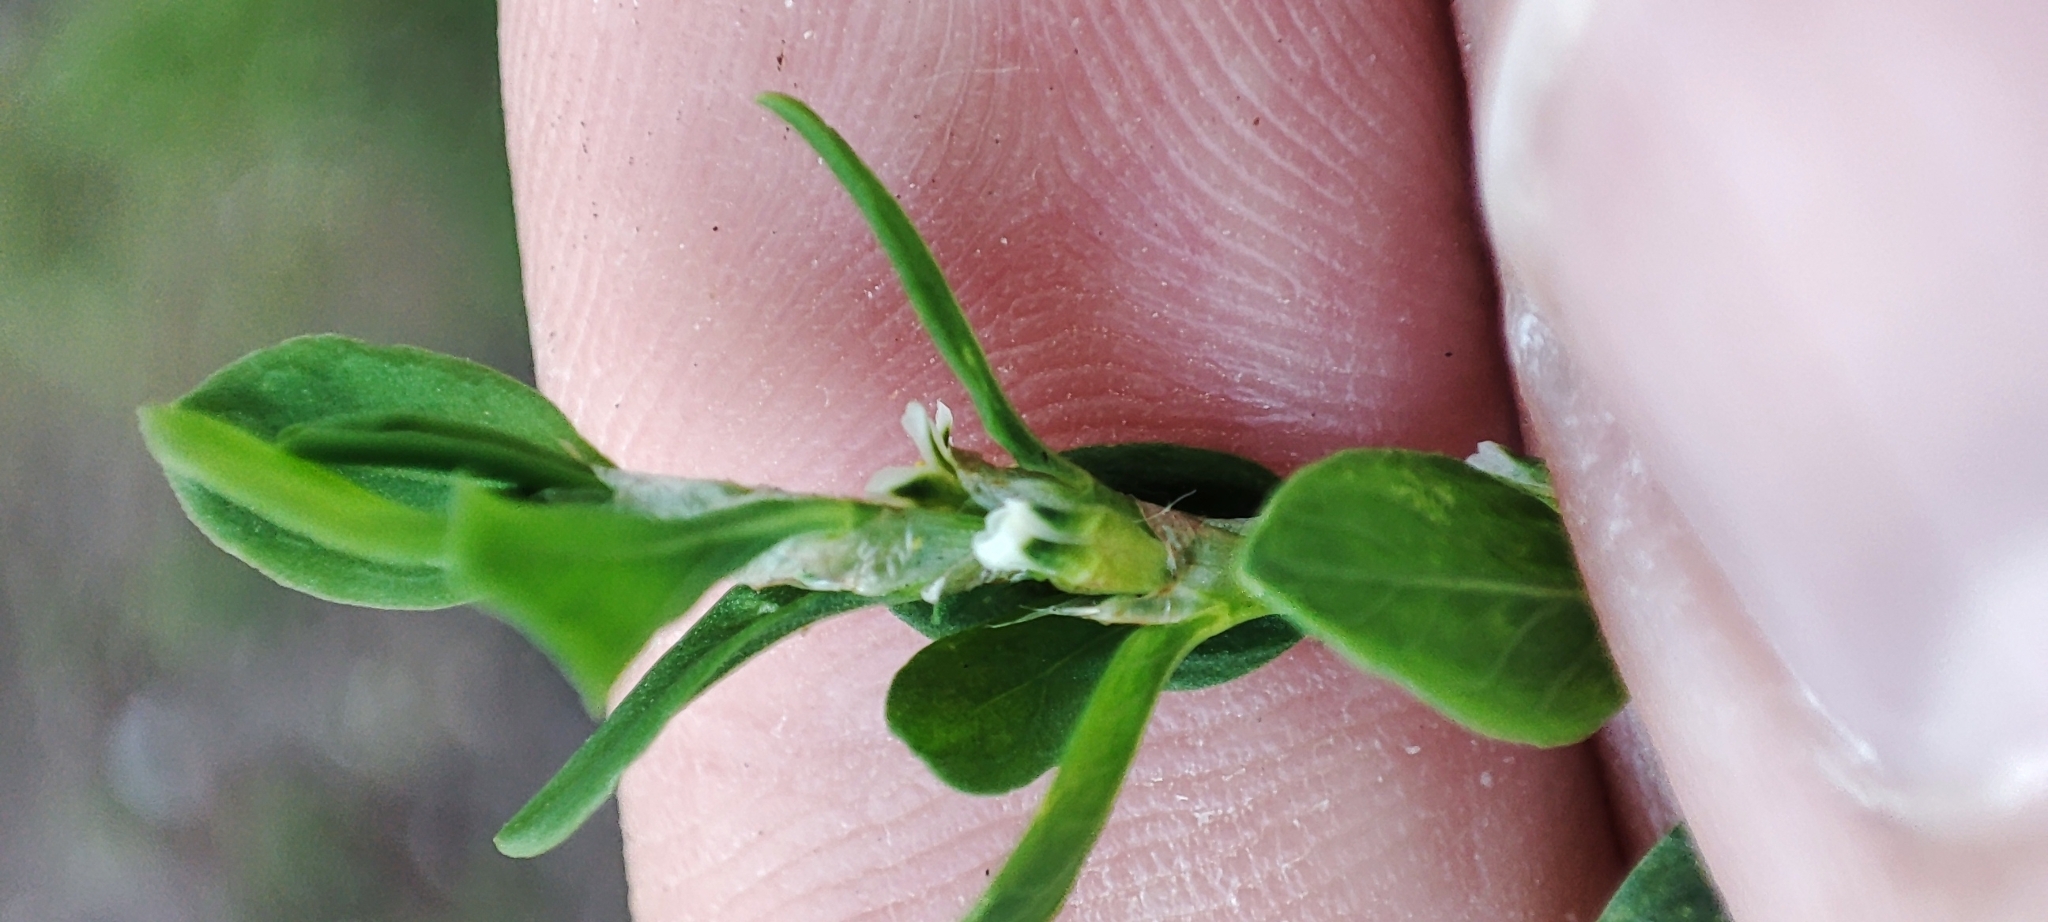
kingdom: Plantae
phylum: Tracheophyta
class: Magnoliopsida
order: Caryophyllales
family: Polygonaceae
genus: Polygonum
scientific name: Polygonum
